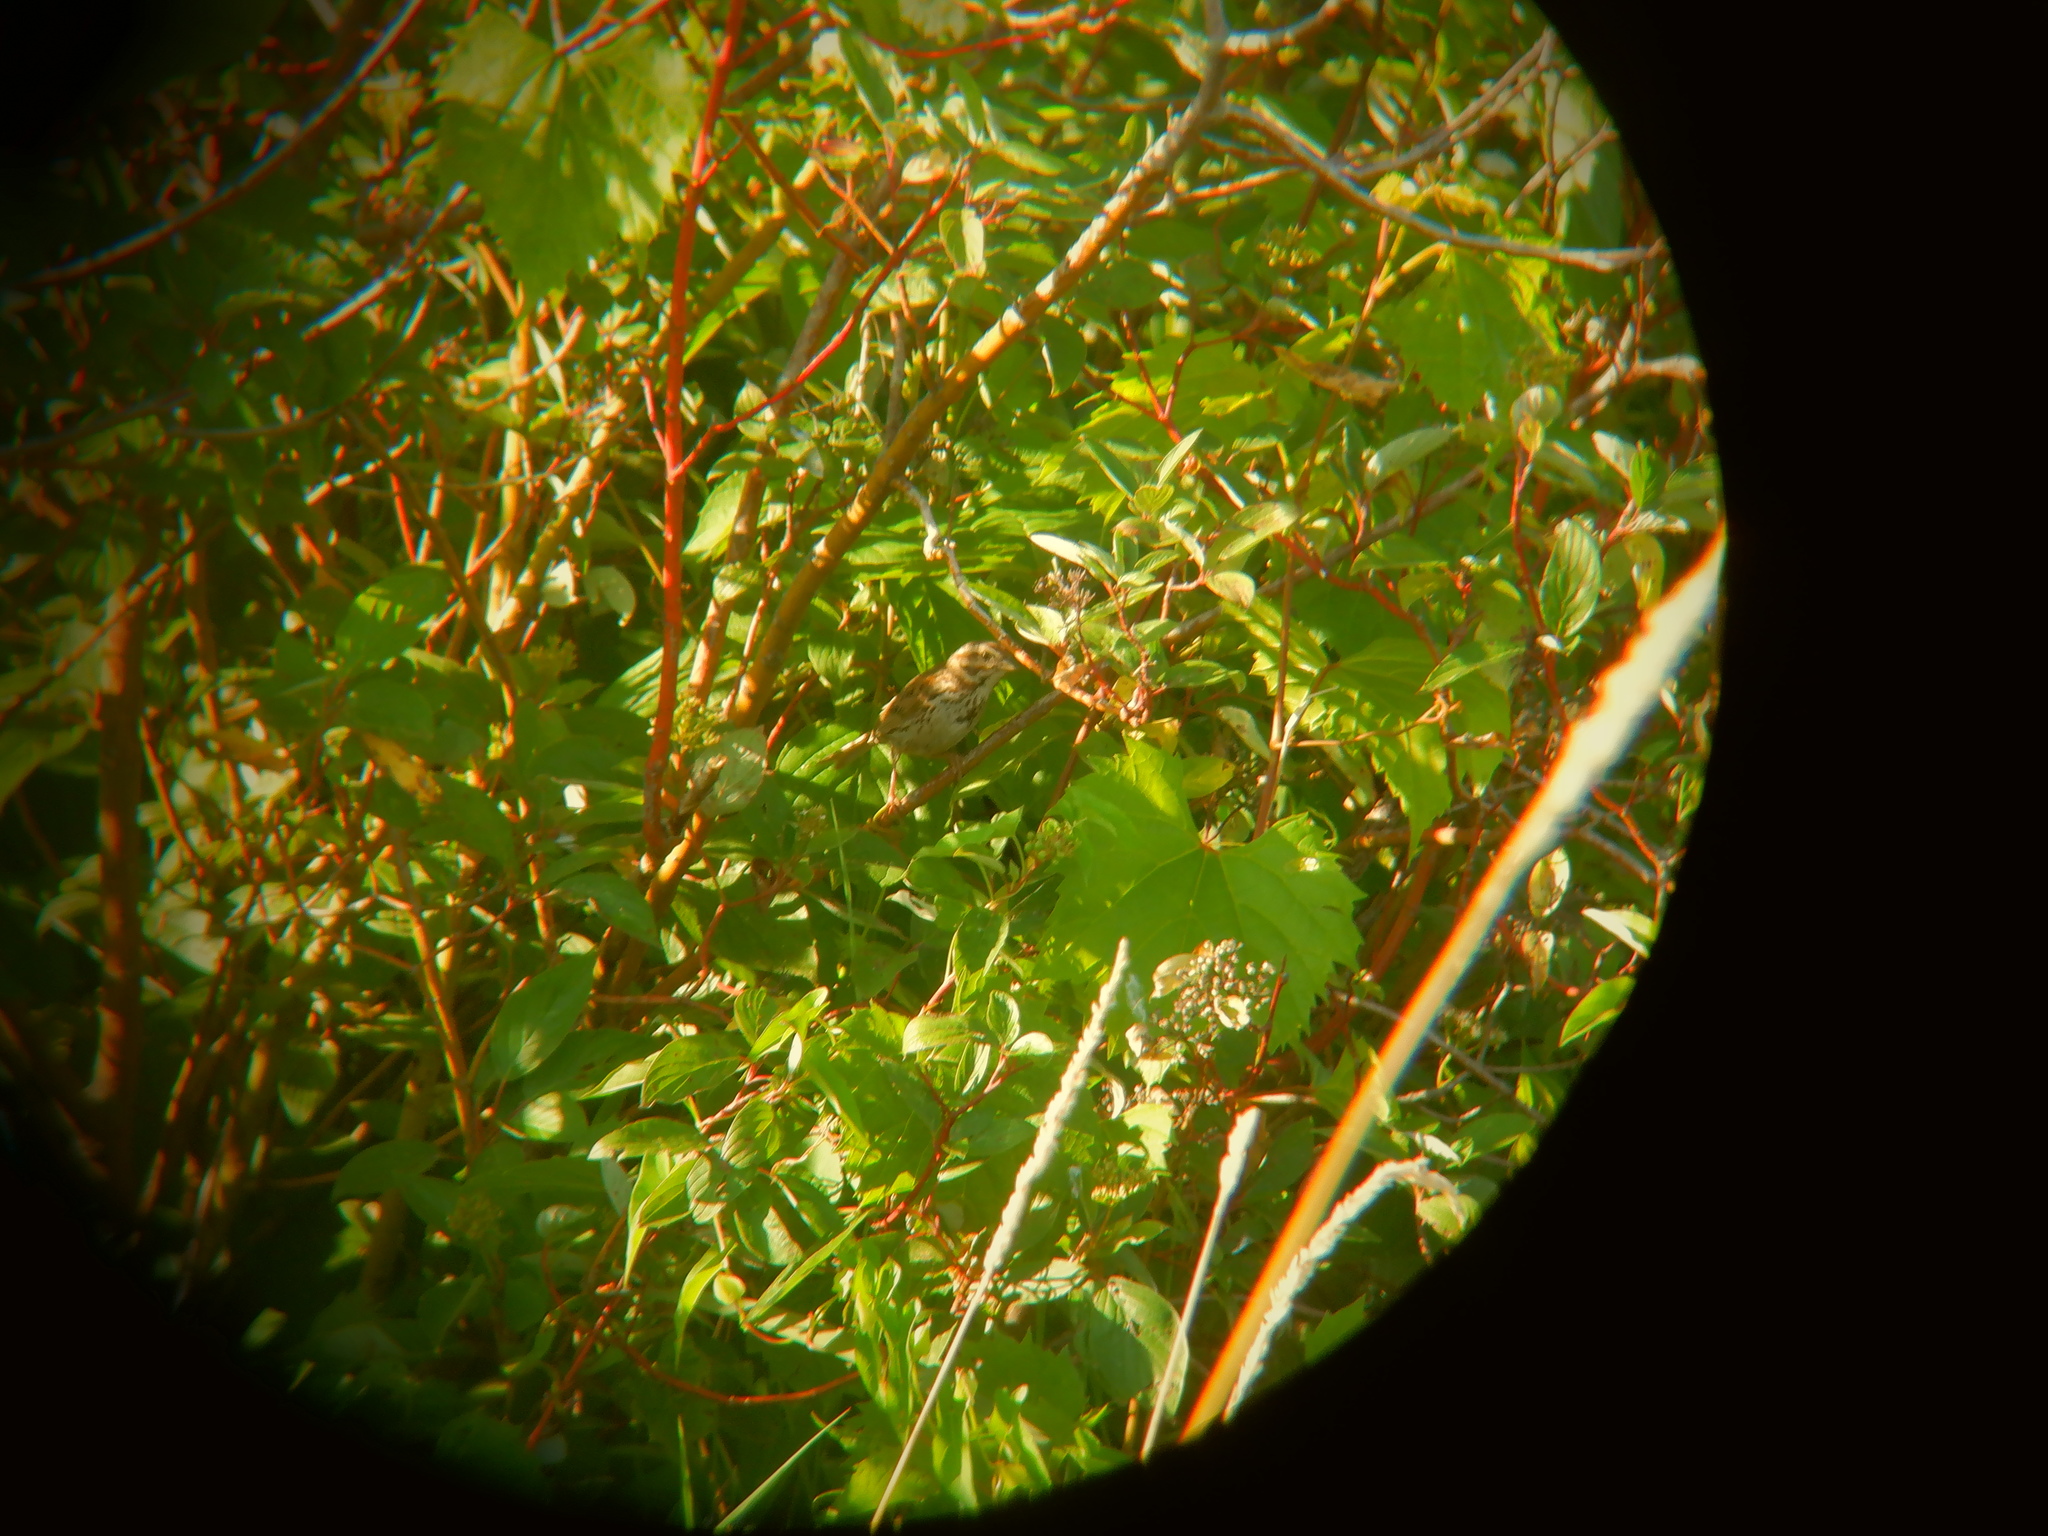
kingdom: Animalia
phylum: Chordata
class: Aves
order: Passeriformes
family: Passerellidae
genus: Melospiza
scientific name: Melospiza melodia
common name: Song sparrow
